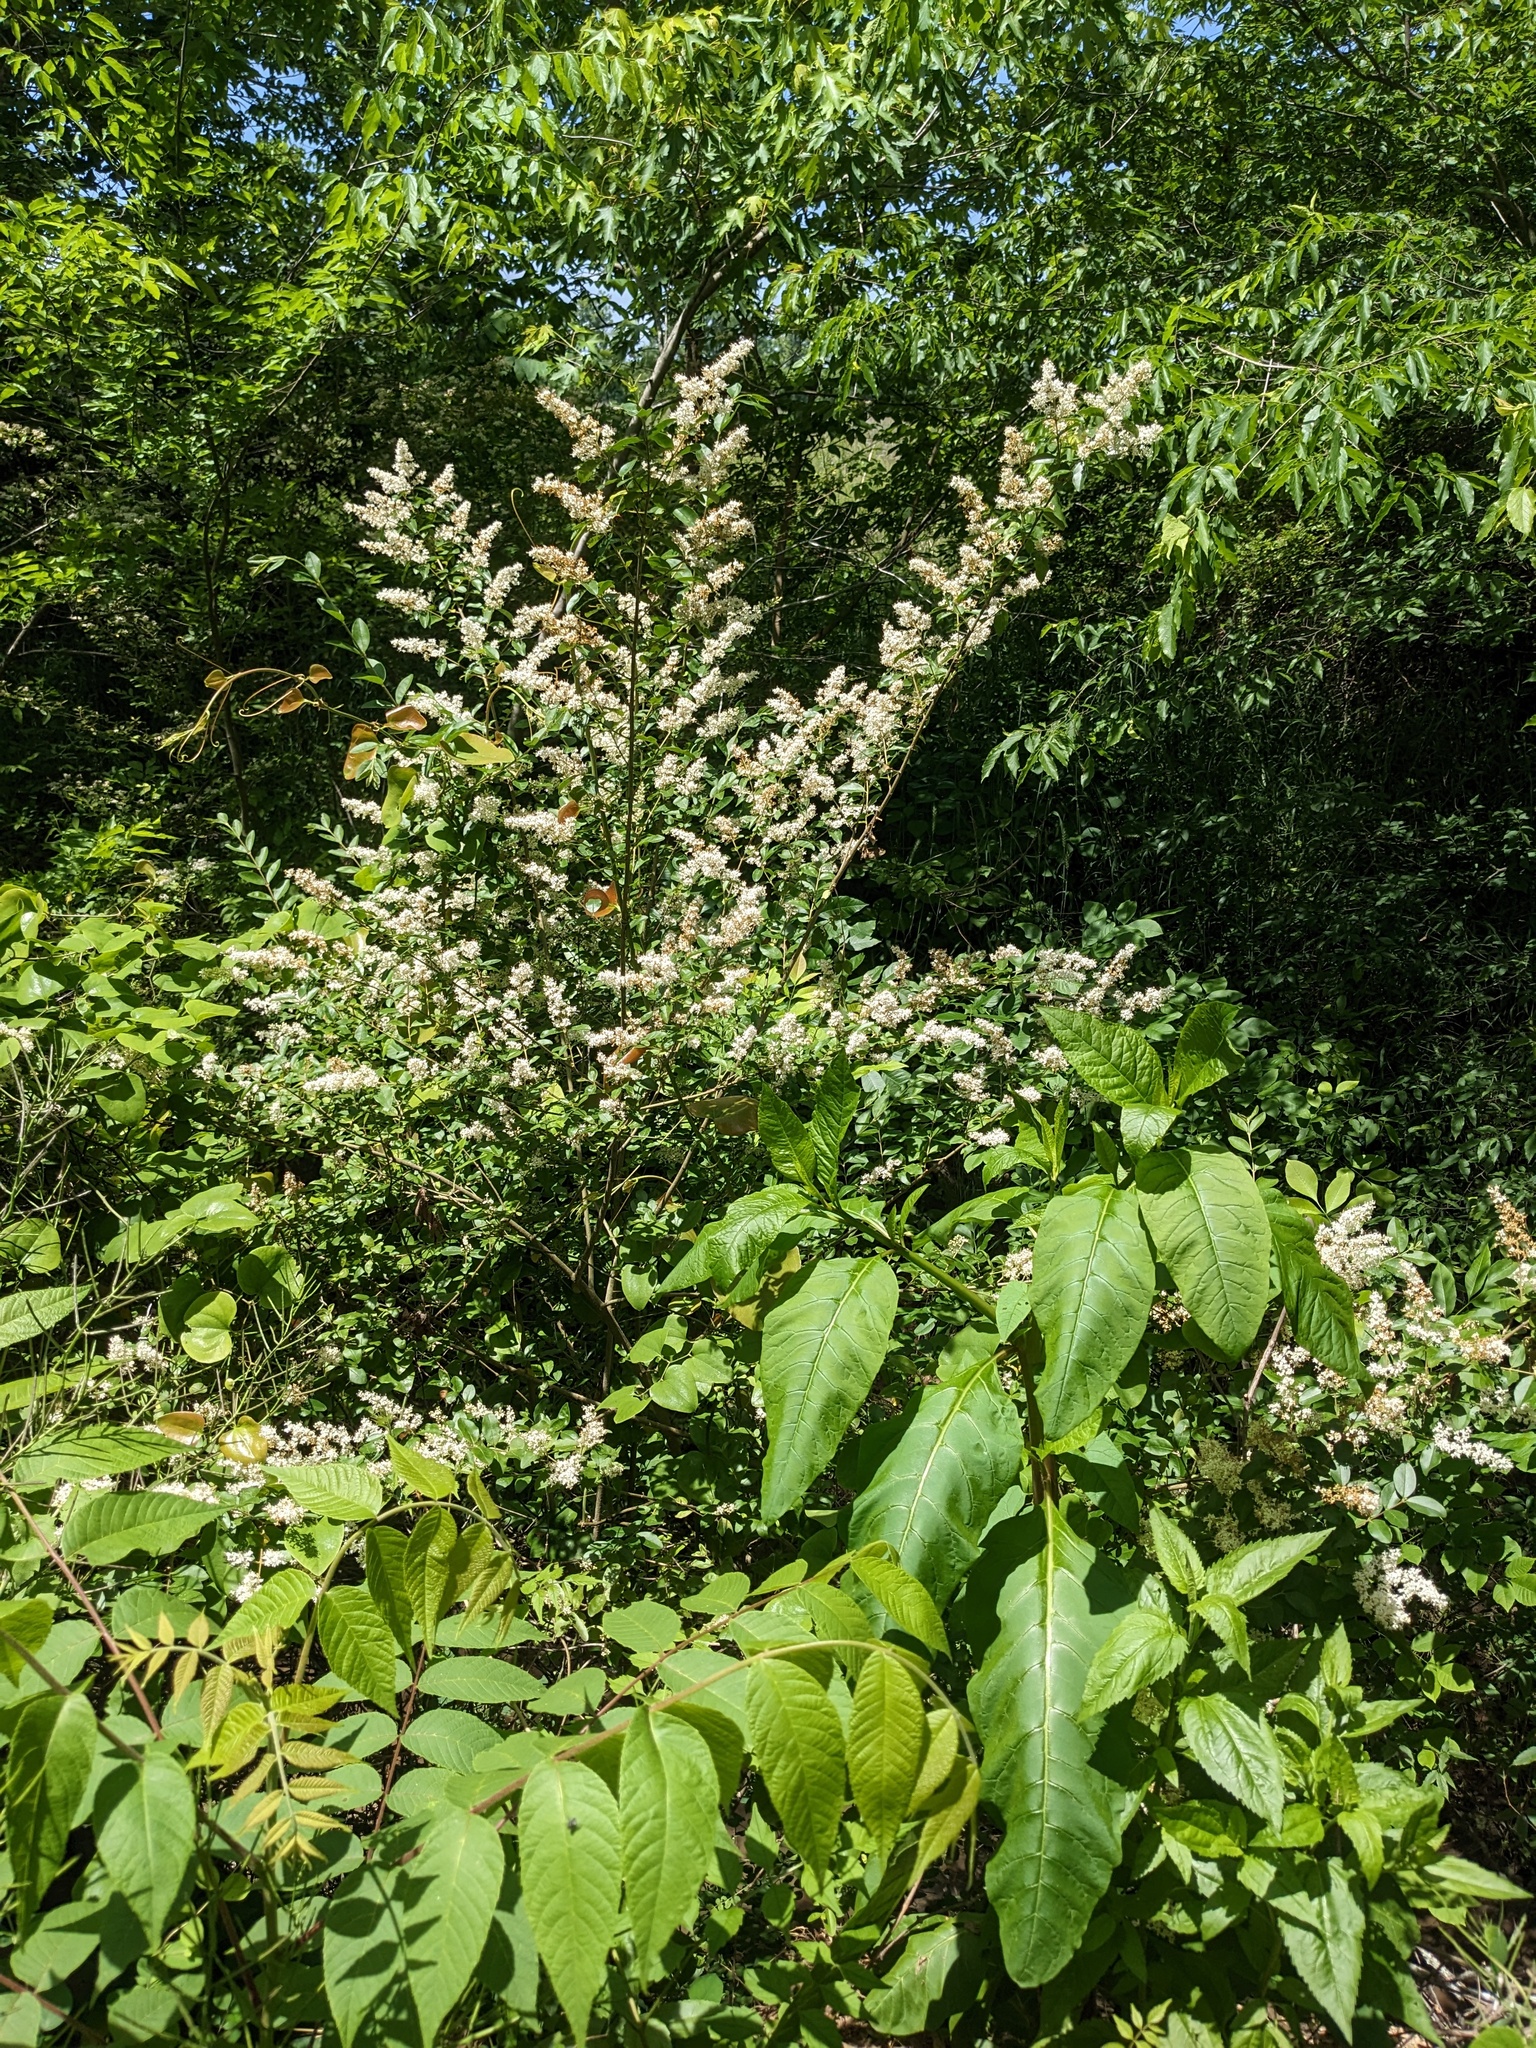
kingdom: Plantae
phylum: Tracheophyta
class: Magnoliopsida
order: Lamiales
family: Oleaceae
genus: Ligustrum
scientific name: Ligustrum sinense
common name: Chinese privet
